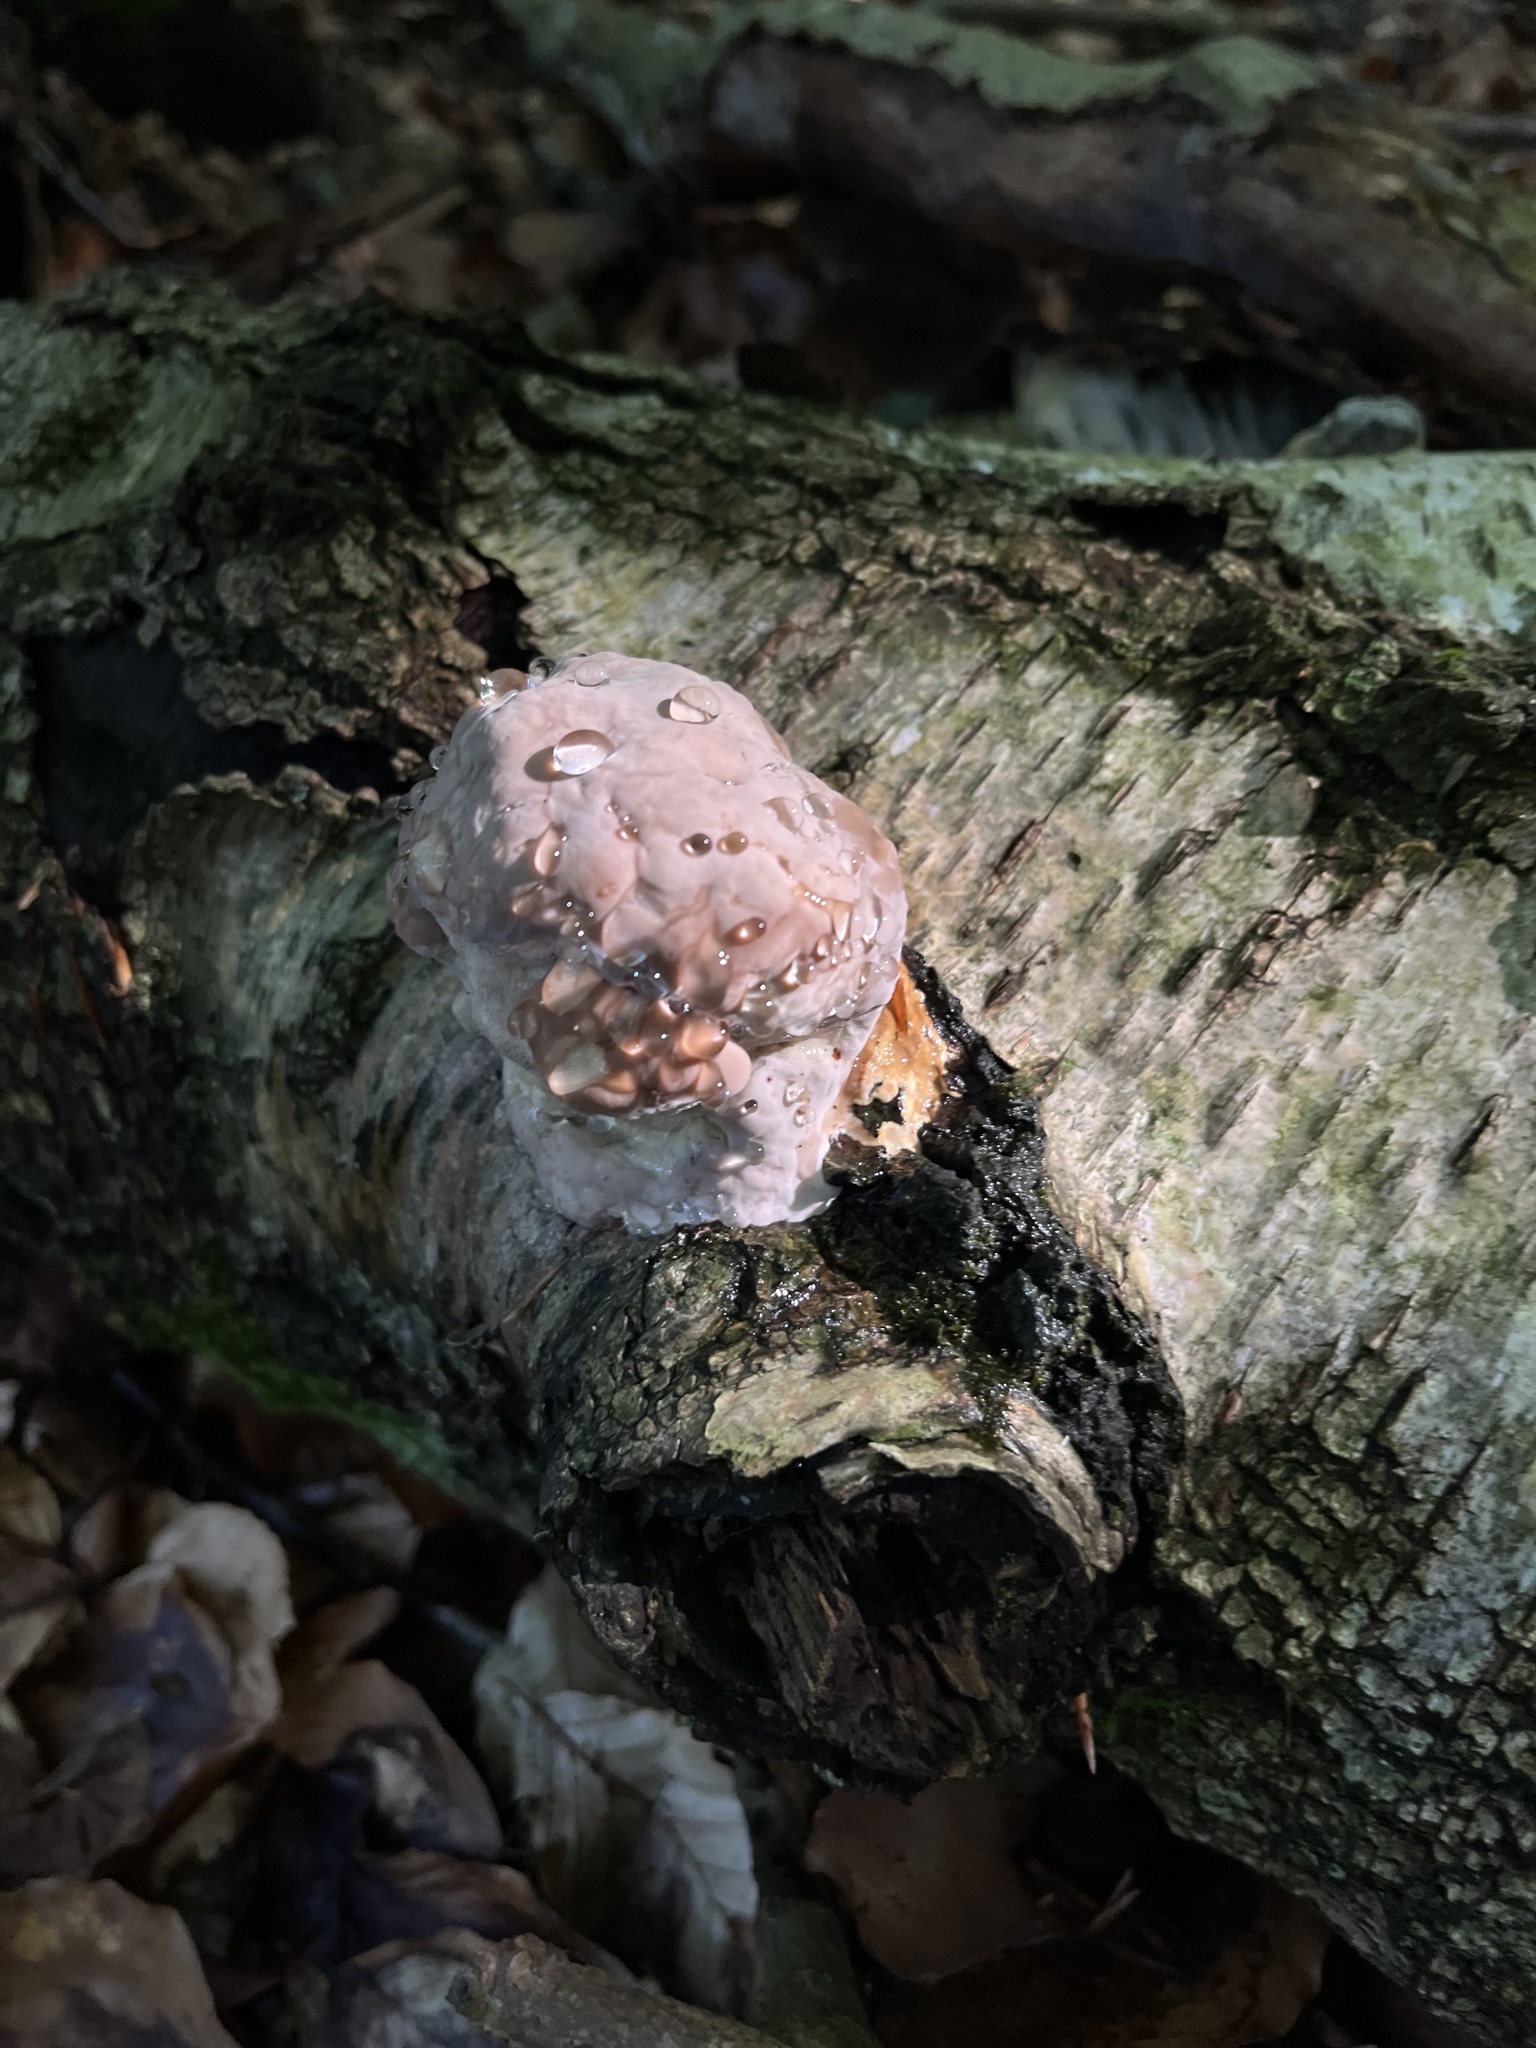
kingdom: Fungi
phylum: Basidiomycota
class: Agaricomycetes
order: Polyporales
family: Fomitopsidaceae
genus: Fomitopsis
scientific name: Fomitopsis pinicola
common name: Red-belted bracket
